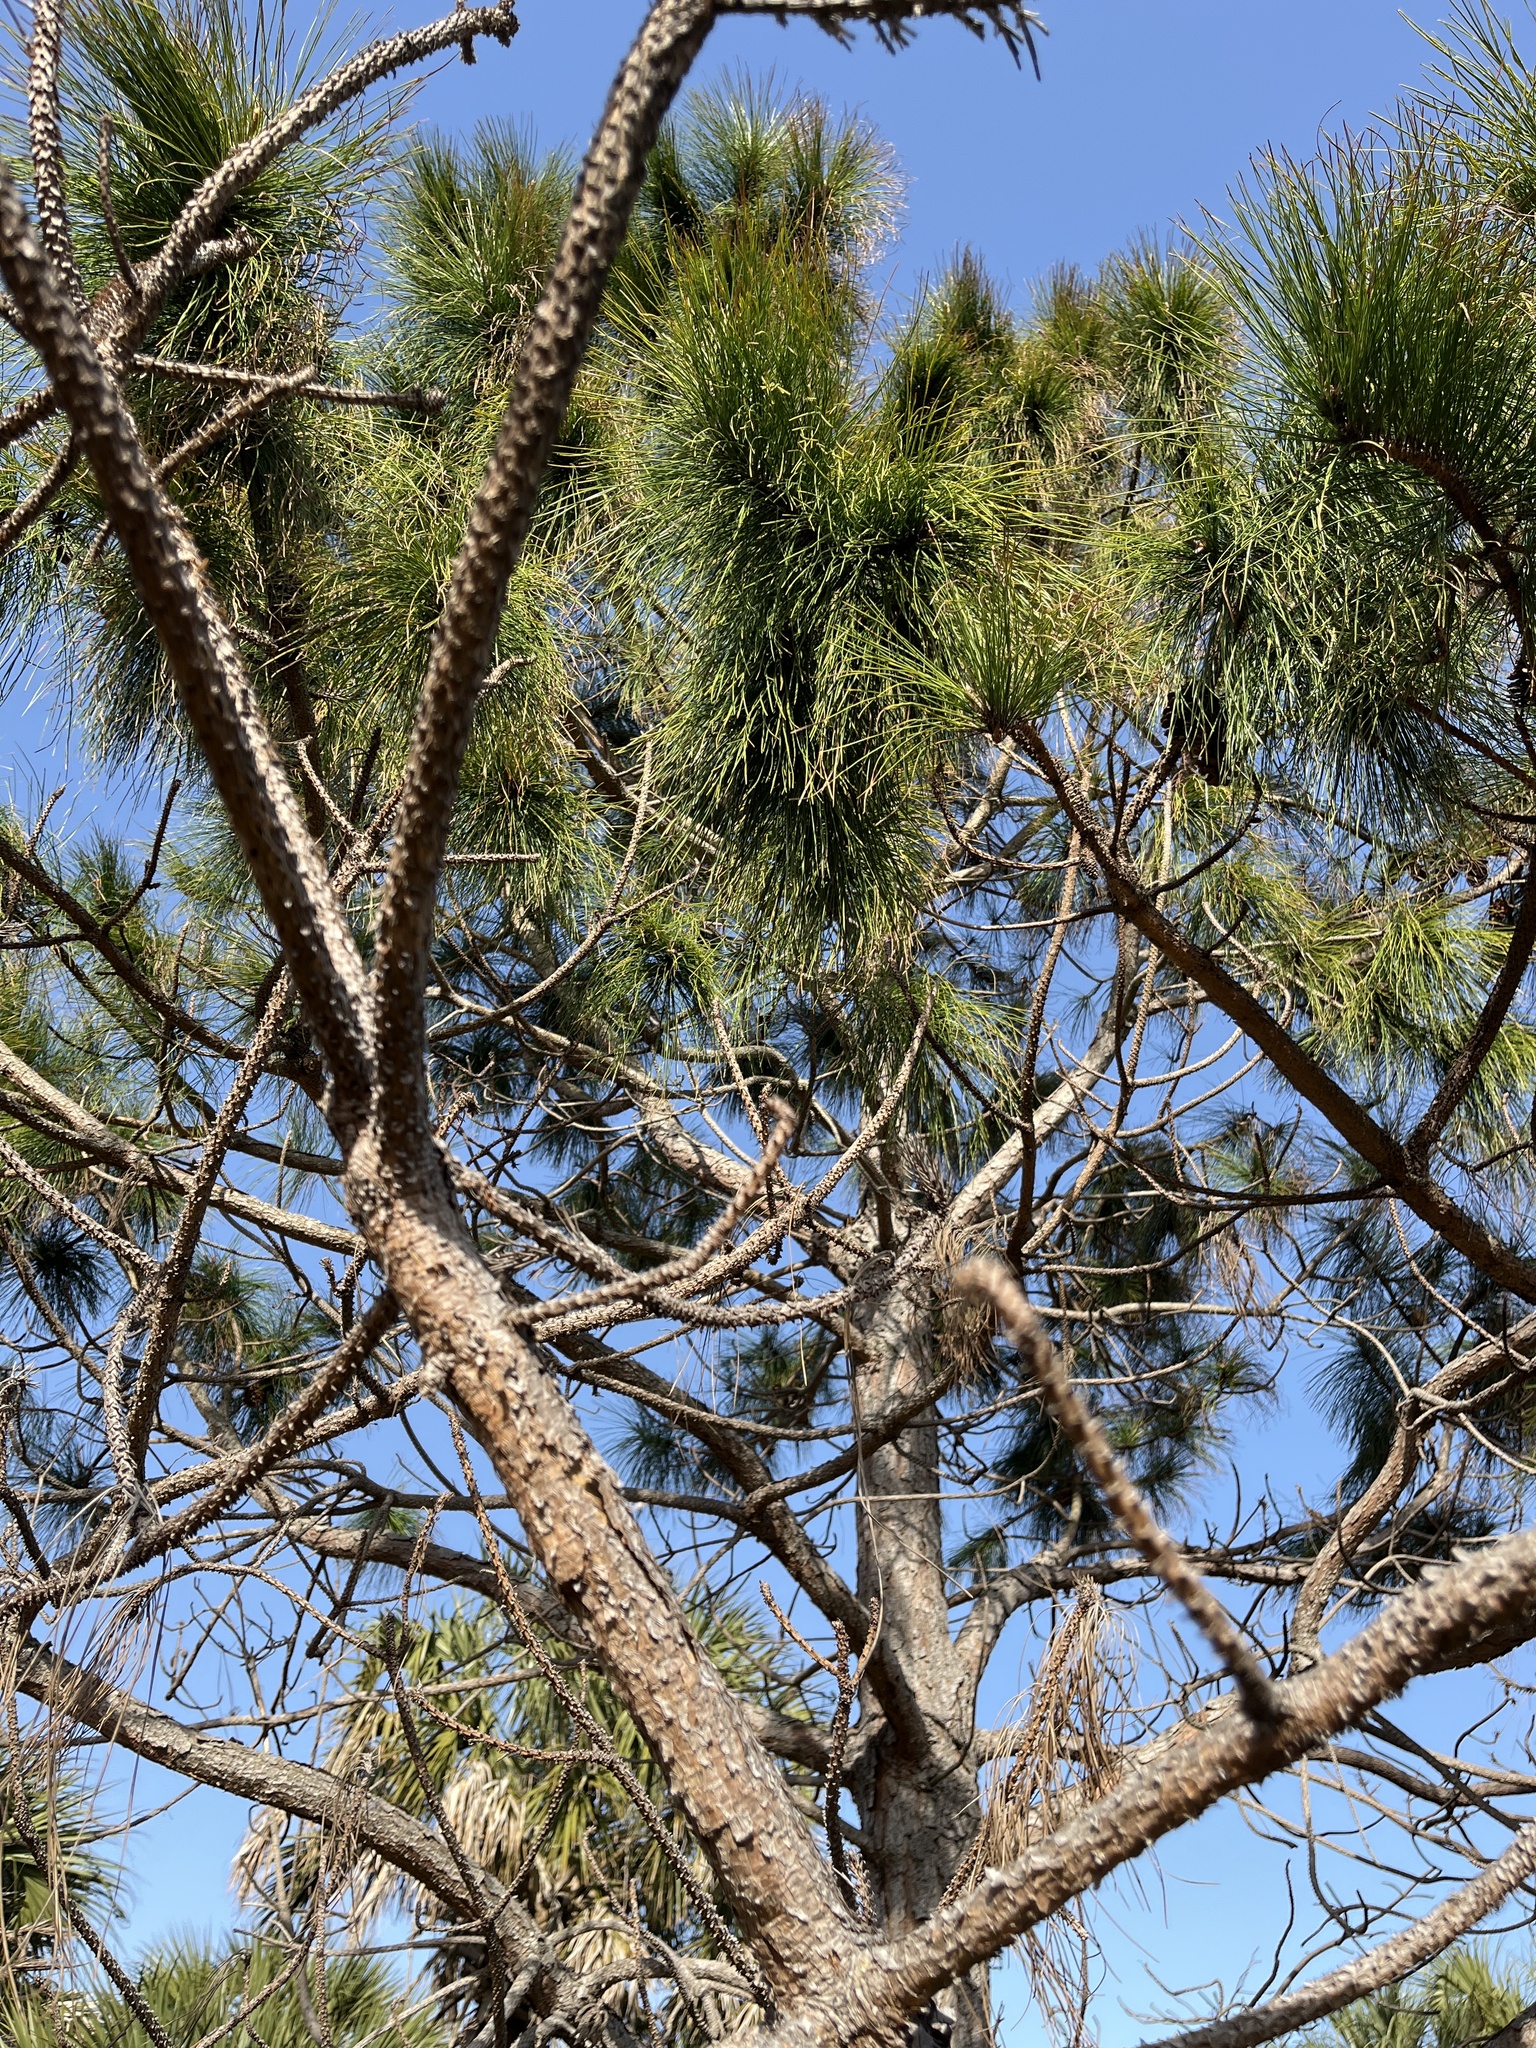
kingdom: Plantae
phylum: Tracheophyta
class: Pinopsida
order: Pinales
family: Pinaceae
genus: Pinus
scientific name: Pinus taeda
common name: Loblolly pine
